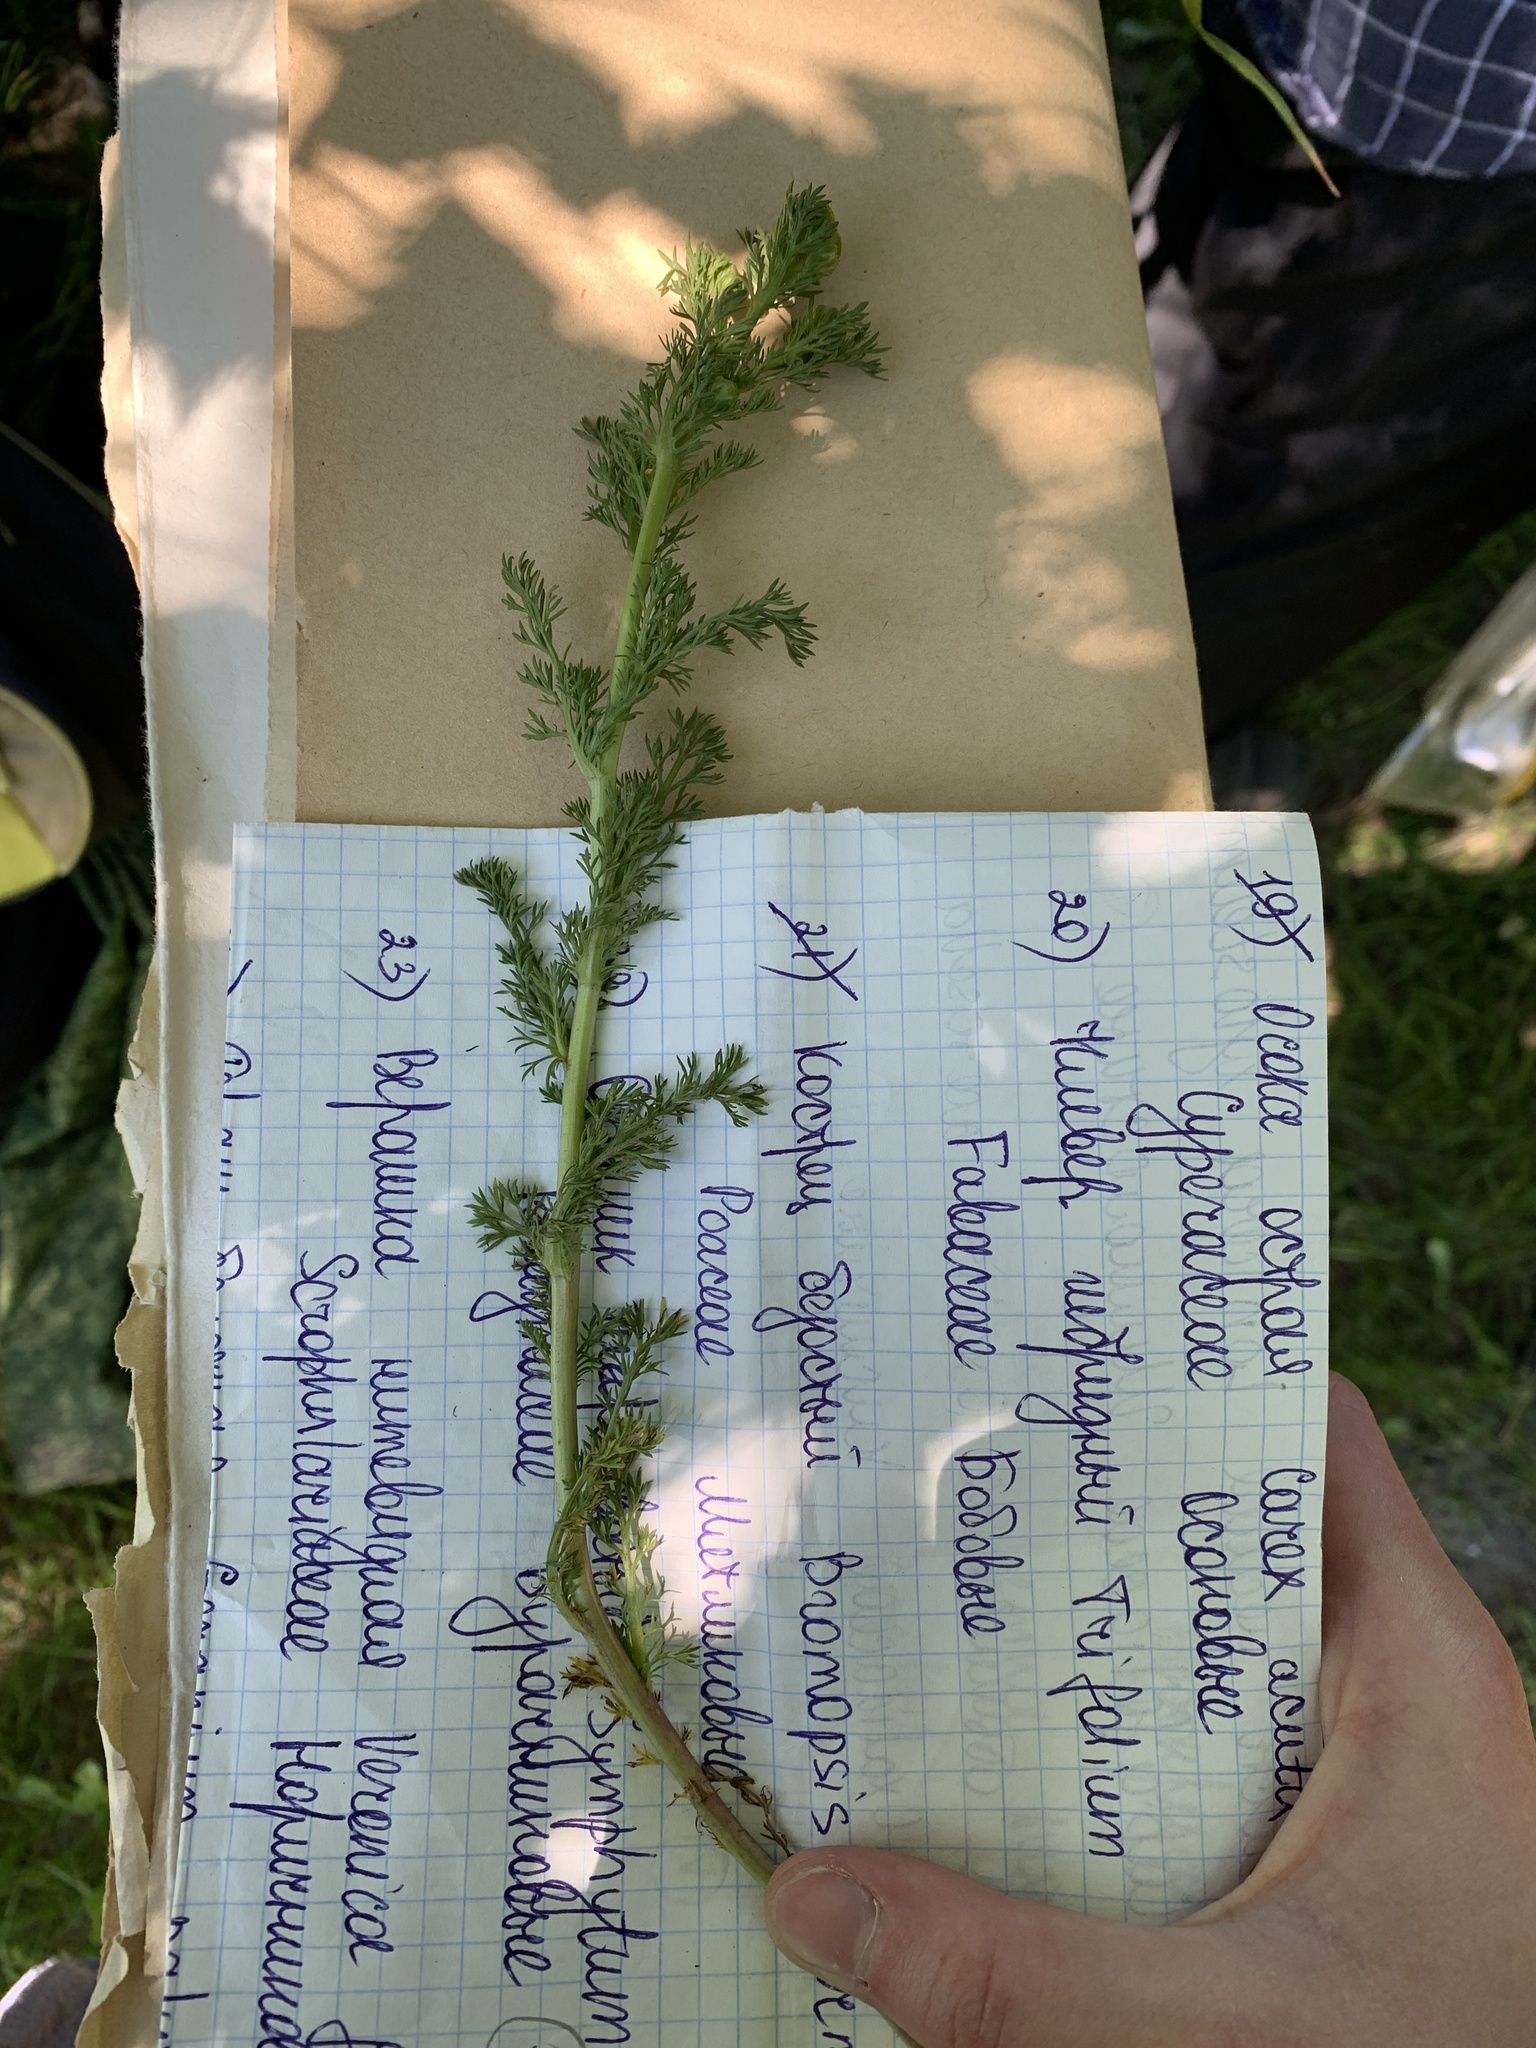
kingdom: Plantae
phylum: Tracheophyta
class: Magnoliopsida
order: Asterales
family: Asteraceae
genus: Matricaria
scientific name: Matricaria discoidea
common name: Disc mayweed
